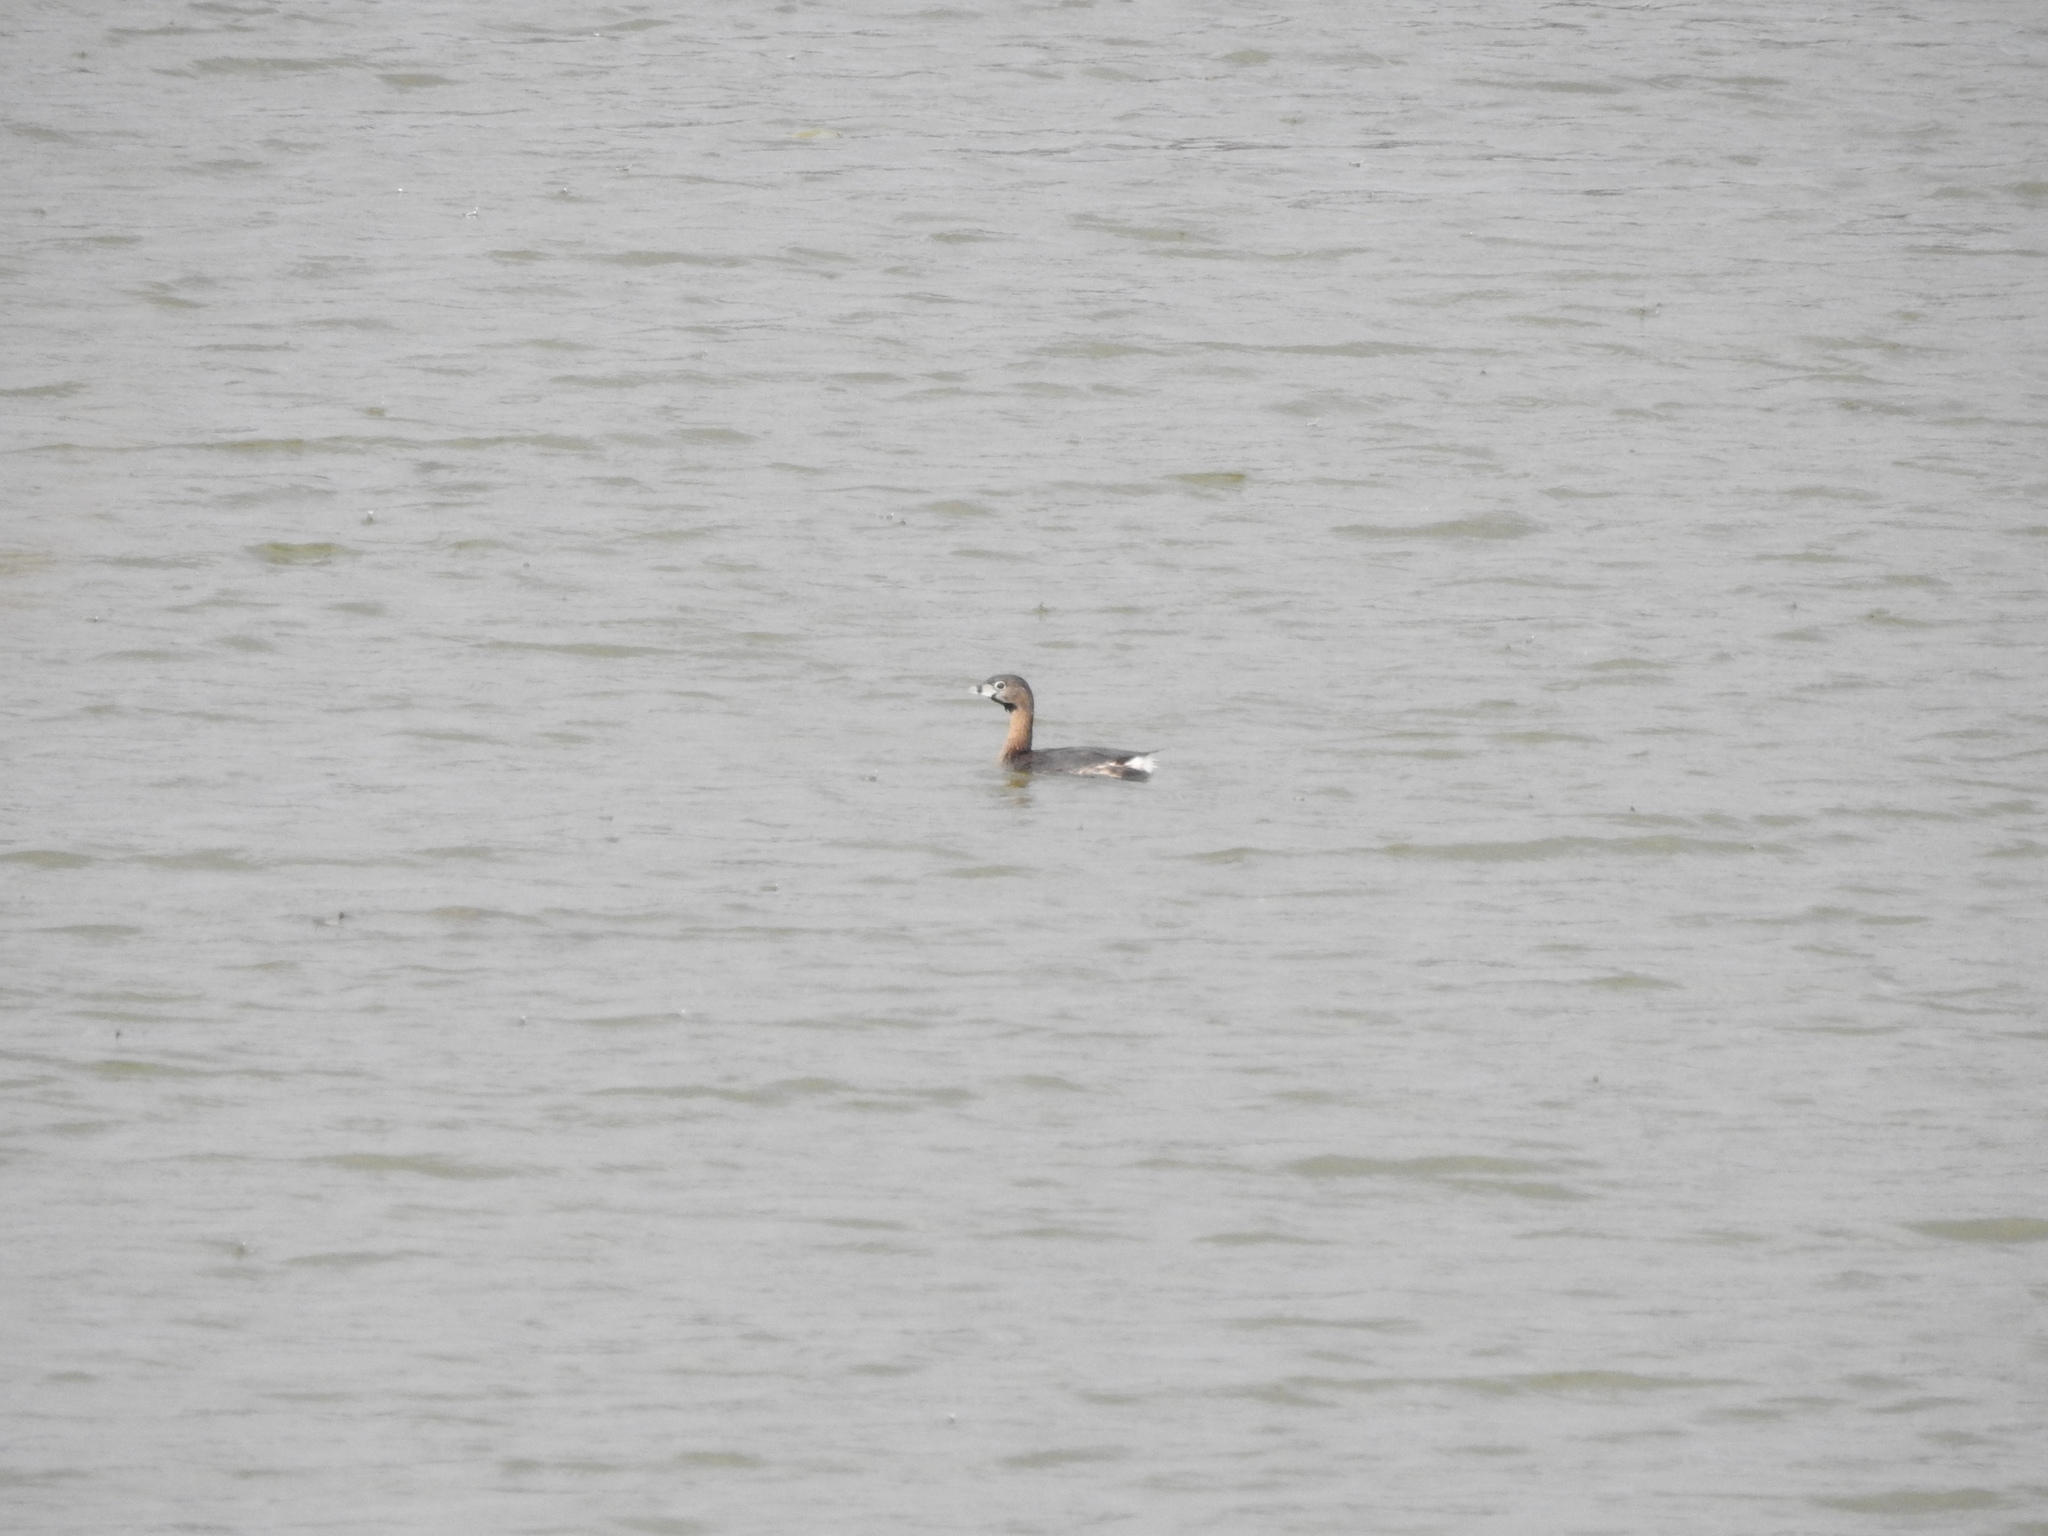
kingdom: Animalia
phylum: Chordata
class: Aves
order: Podicipediformes
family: Podicipedidae
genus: Podilymbus
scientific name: Podilymbus podiceps
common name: Pied-billed grebe
